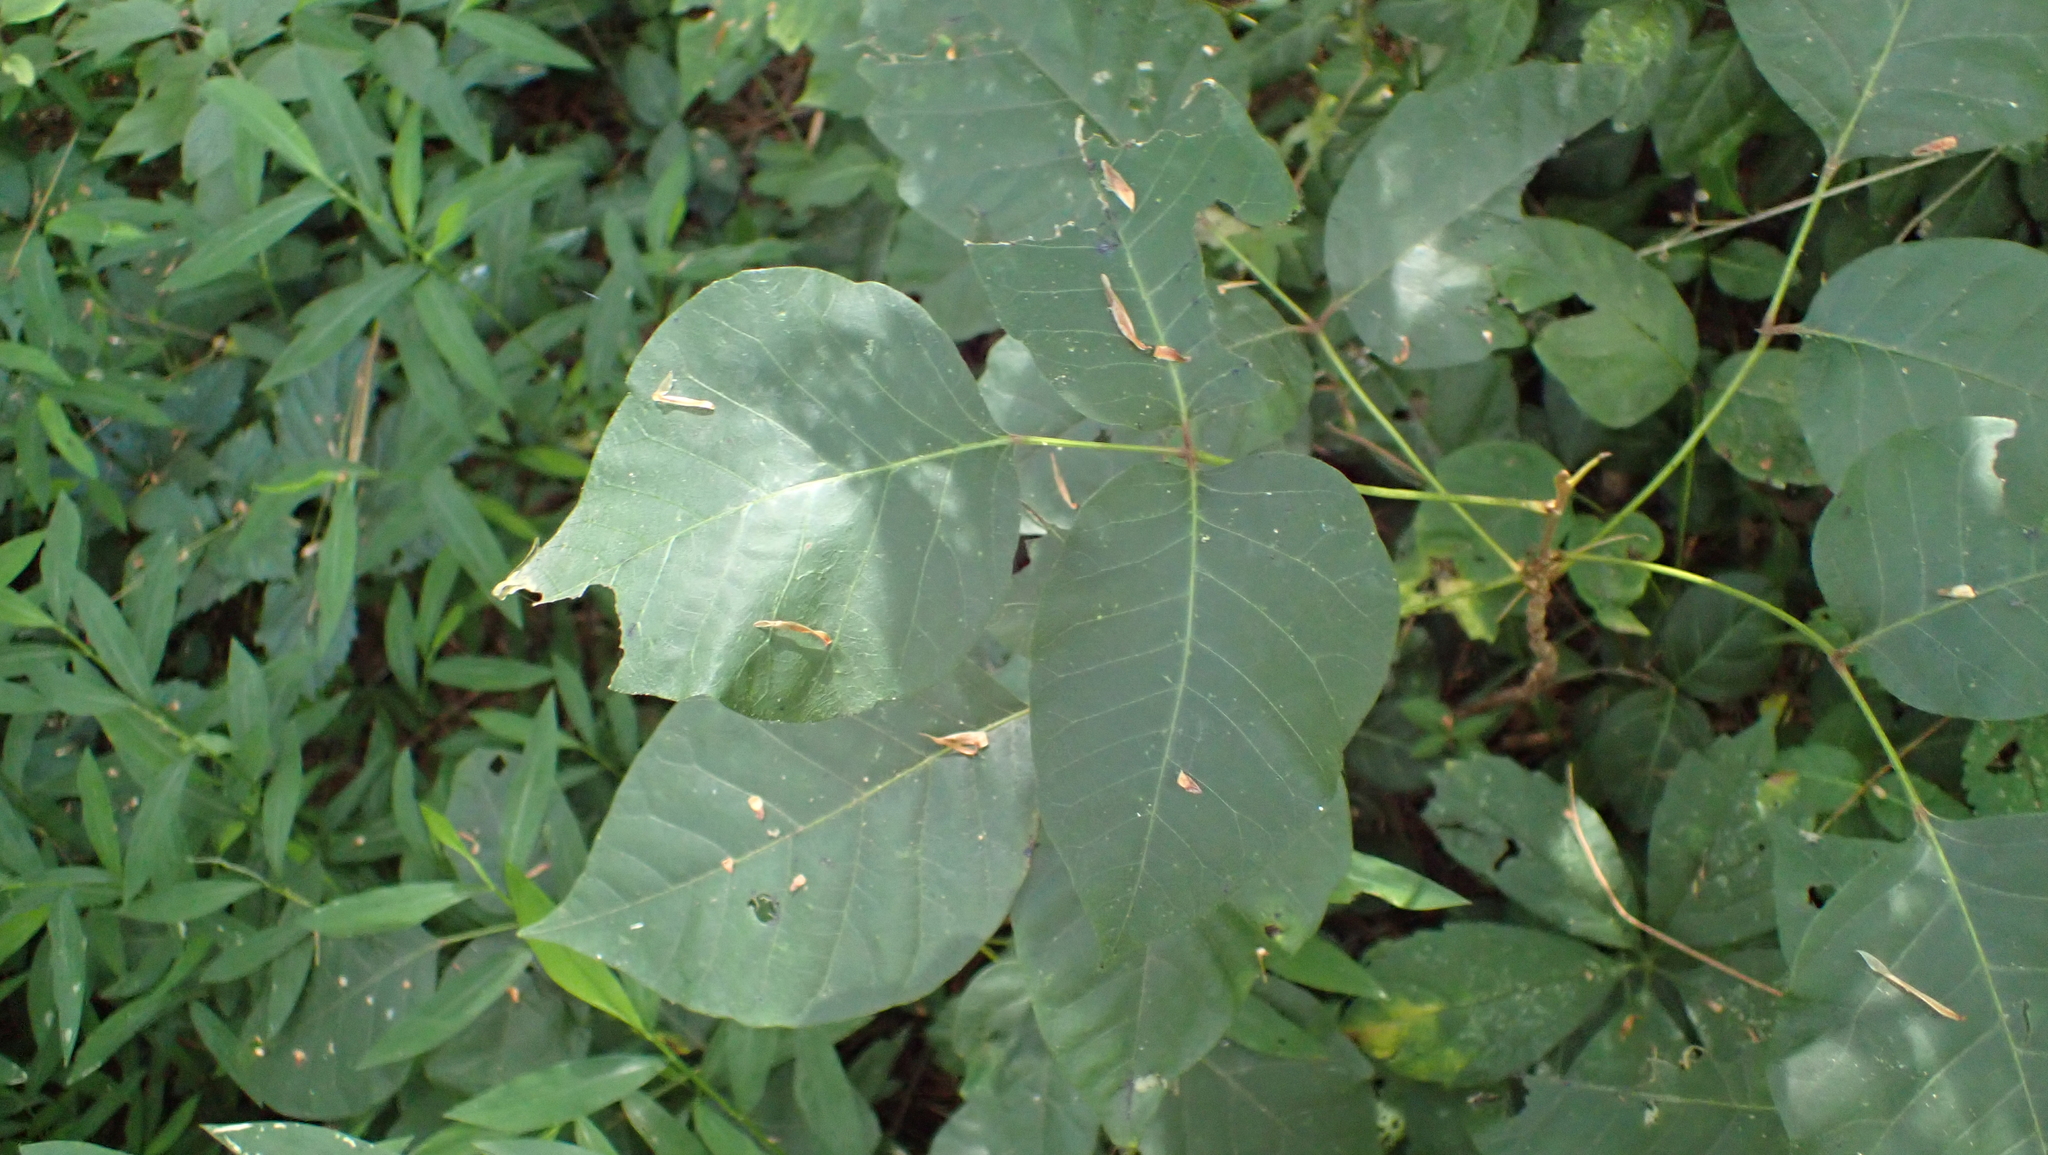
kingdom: Plantae
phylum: Tracheophyta
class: Magnoliopsida
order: Sapindales
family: Anacardiaceae
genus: Toxicodendron
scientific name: Toxicodendron radicans
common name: Poison ivy
